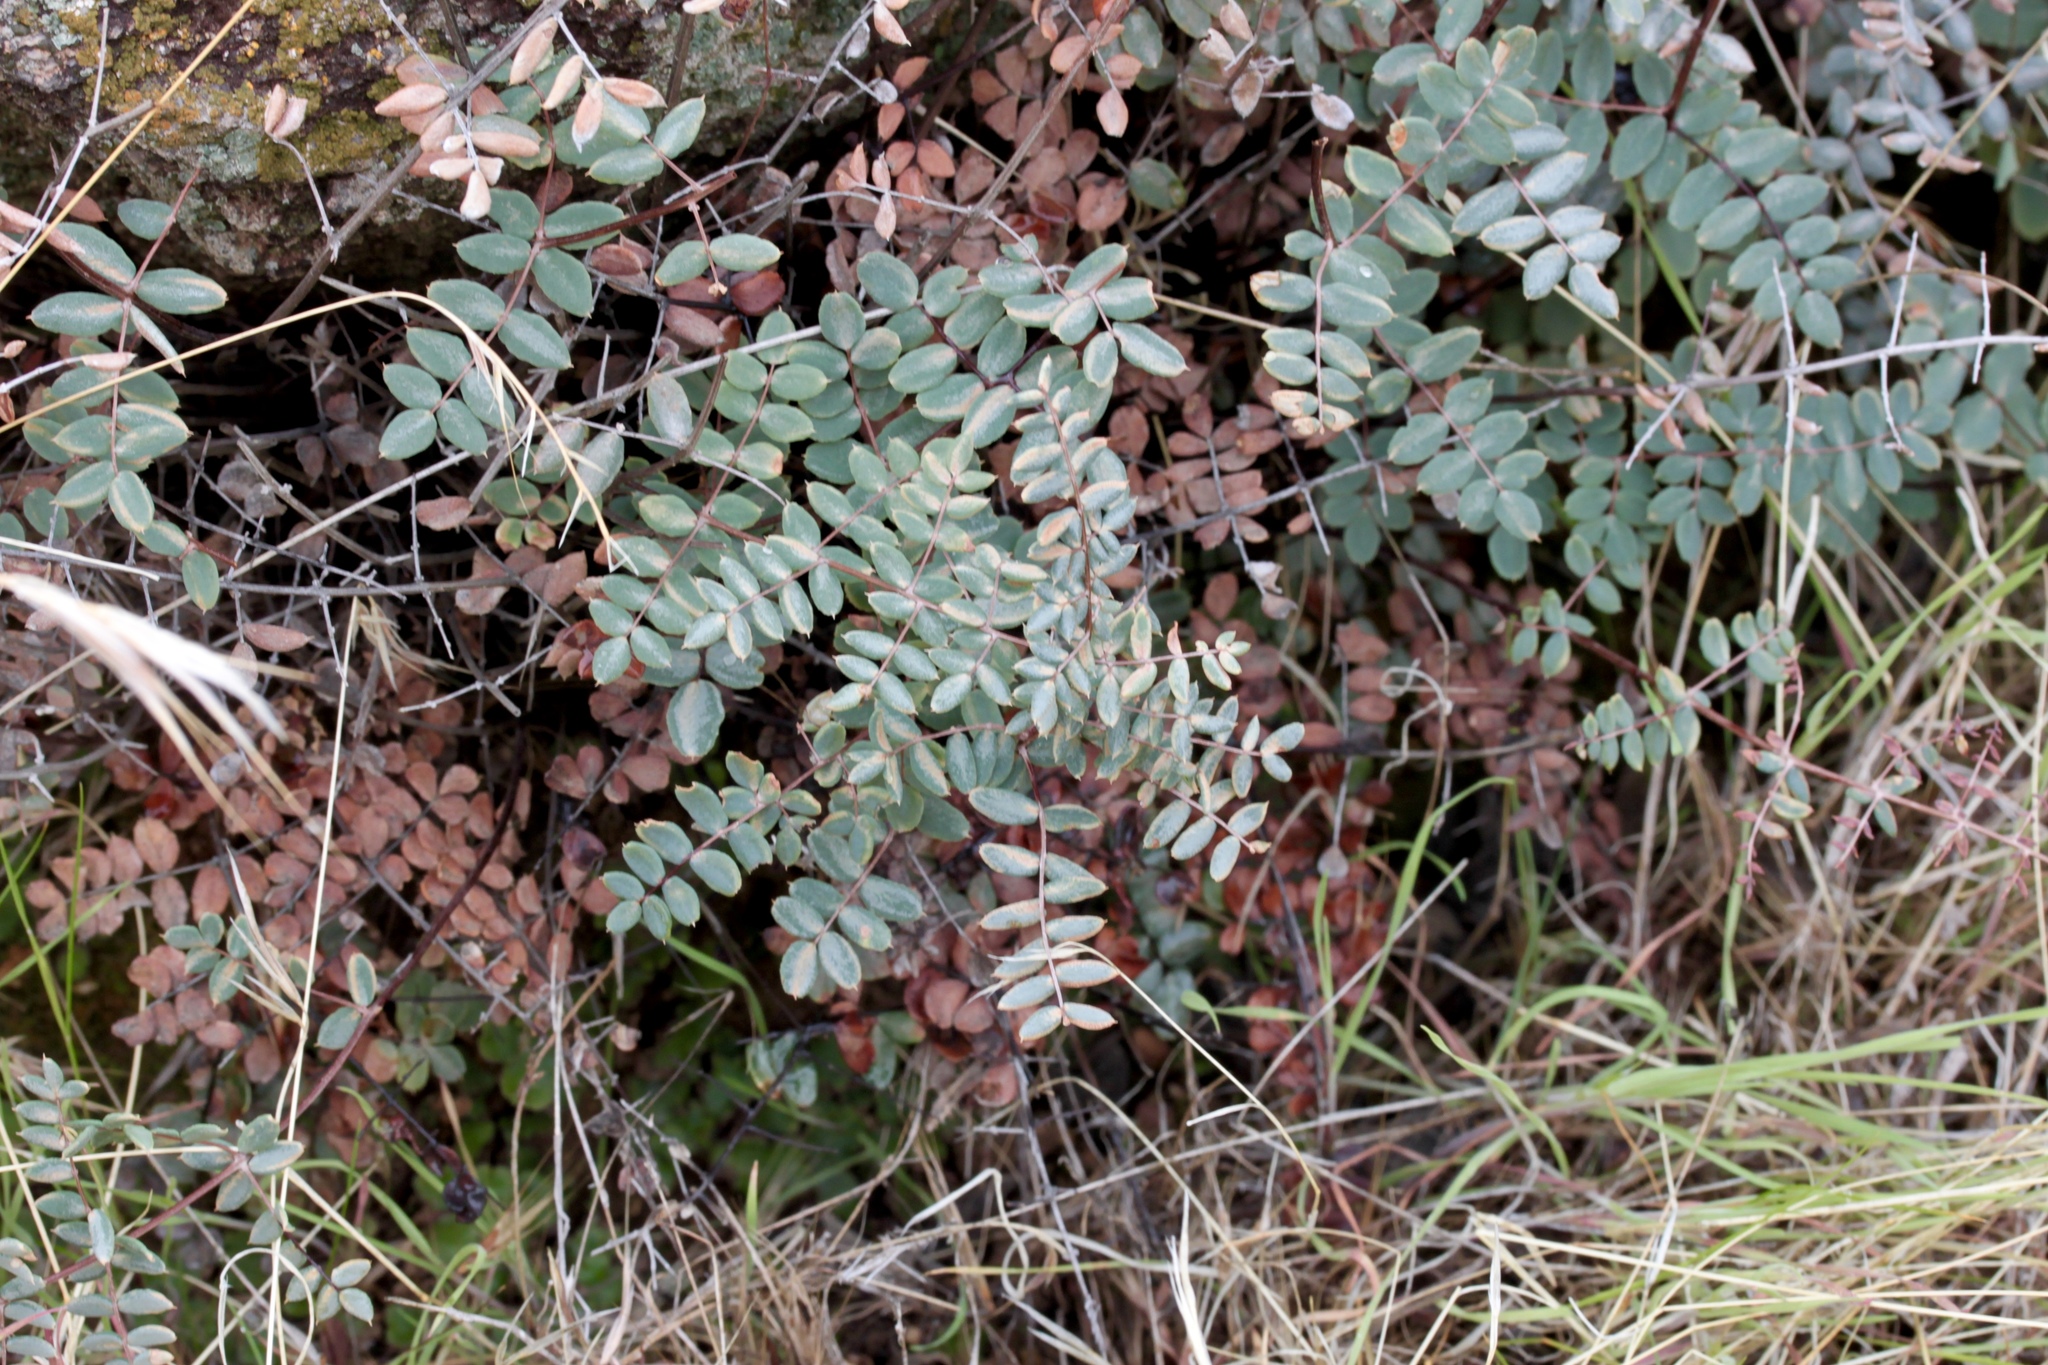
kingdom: Plantae
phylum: Tracheophyta
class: Polypodiopsida
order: Polypodiales
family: Pteridaceae
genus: Pellaea
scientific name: Pellaea truncata
